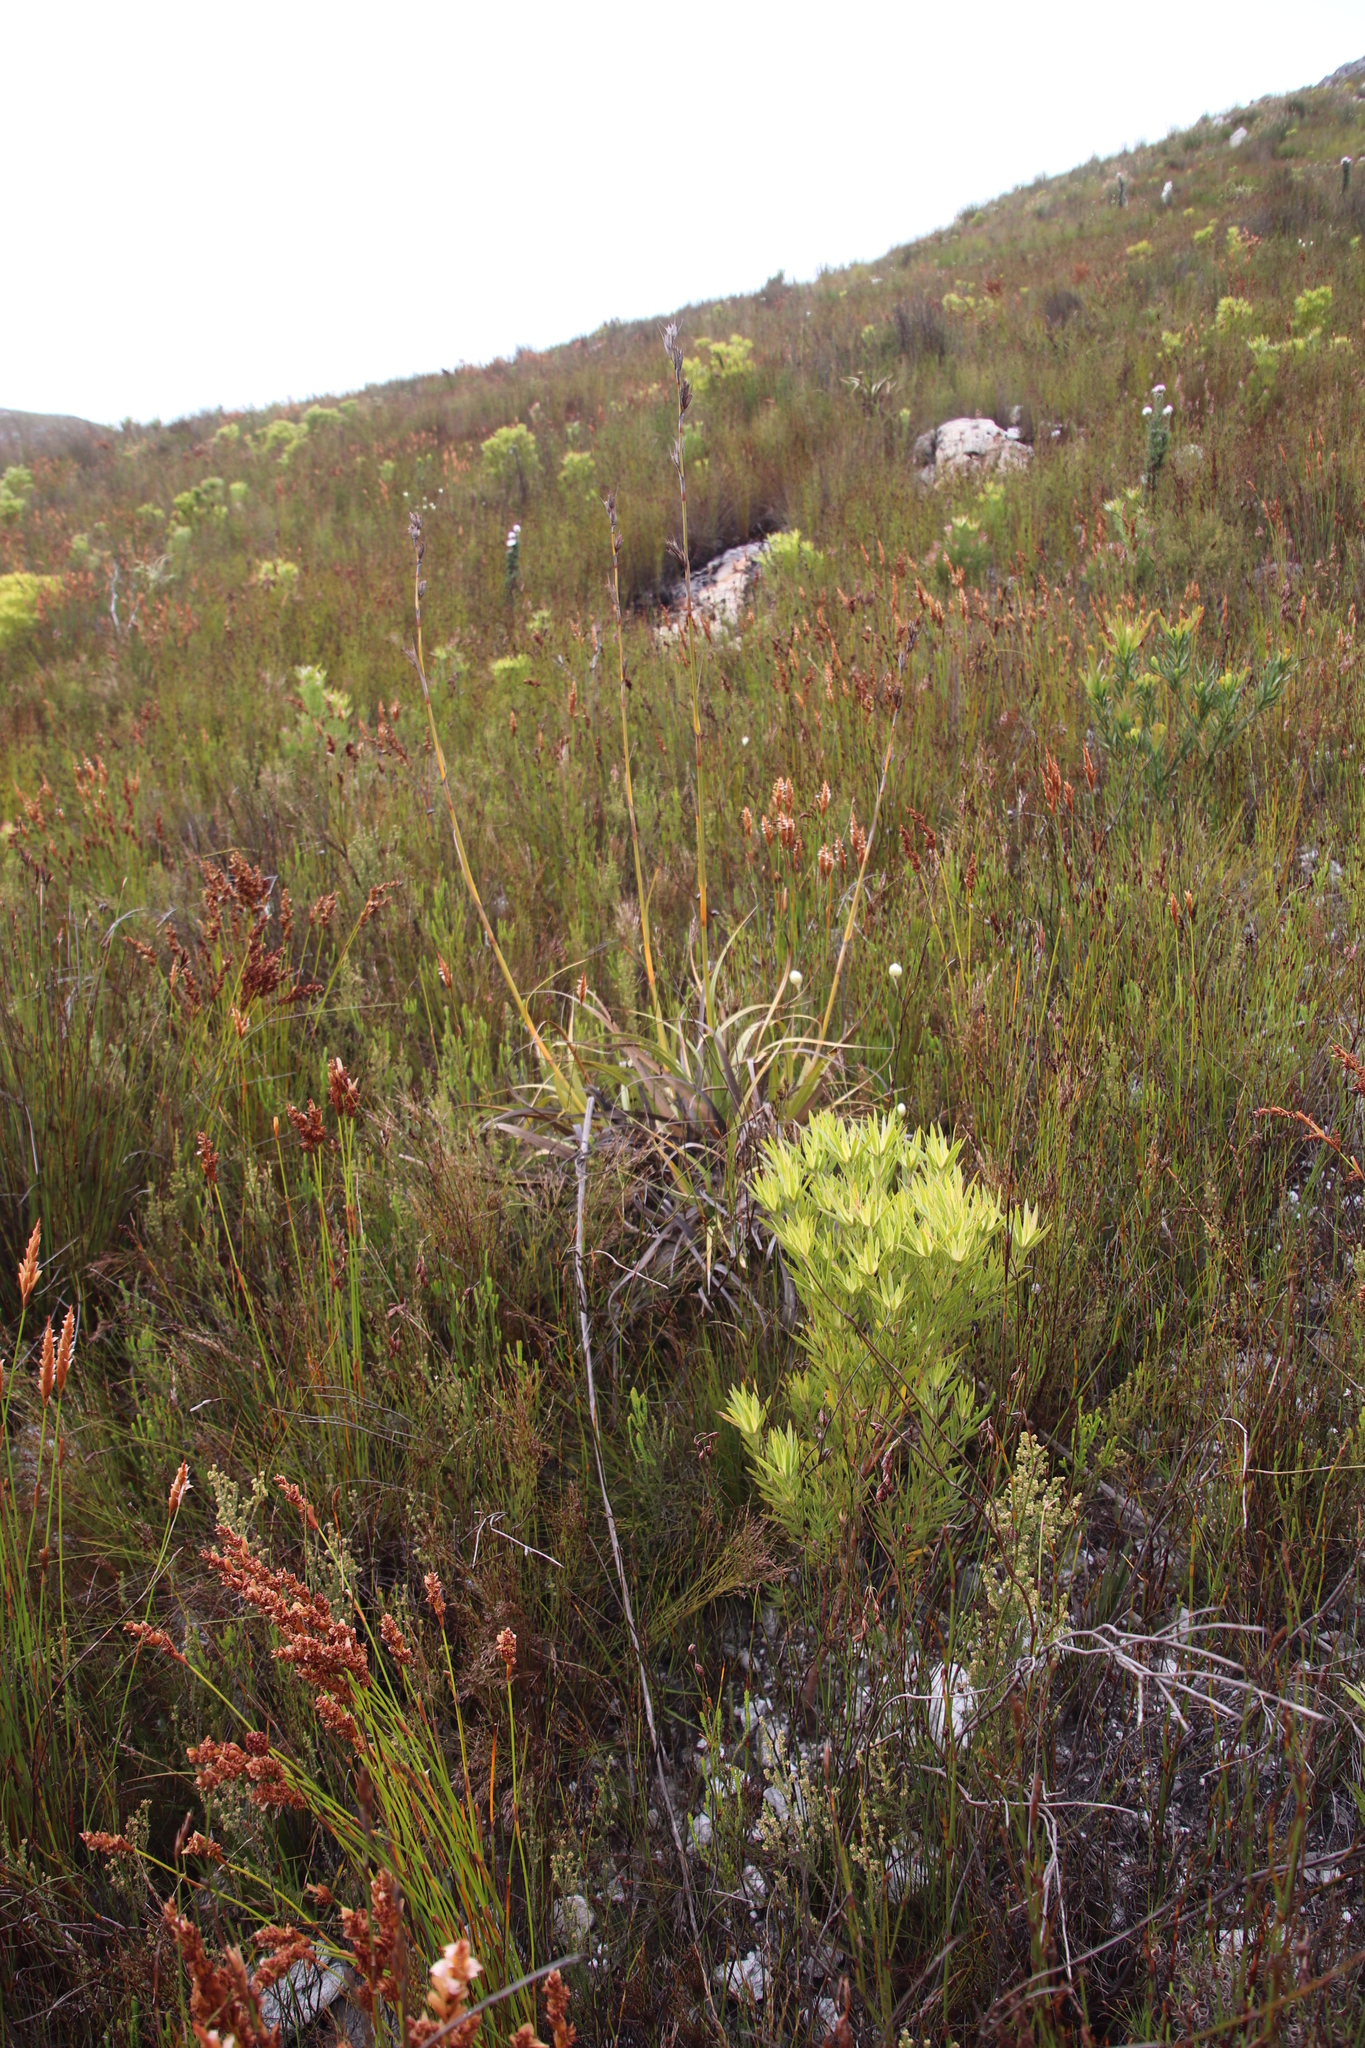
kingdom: Plantae
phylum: Tracheophyta
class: Liliopsida
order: Poales
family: Cyperaceae
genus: Tetraria
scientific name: Tetraria thermalis
